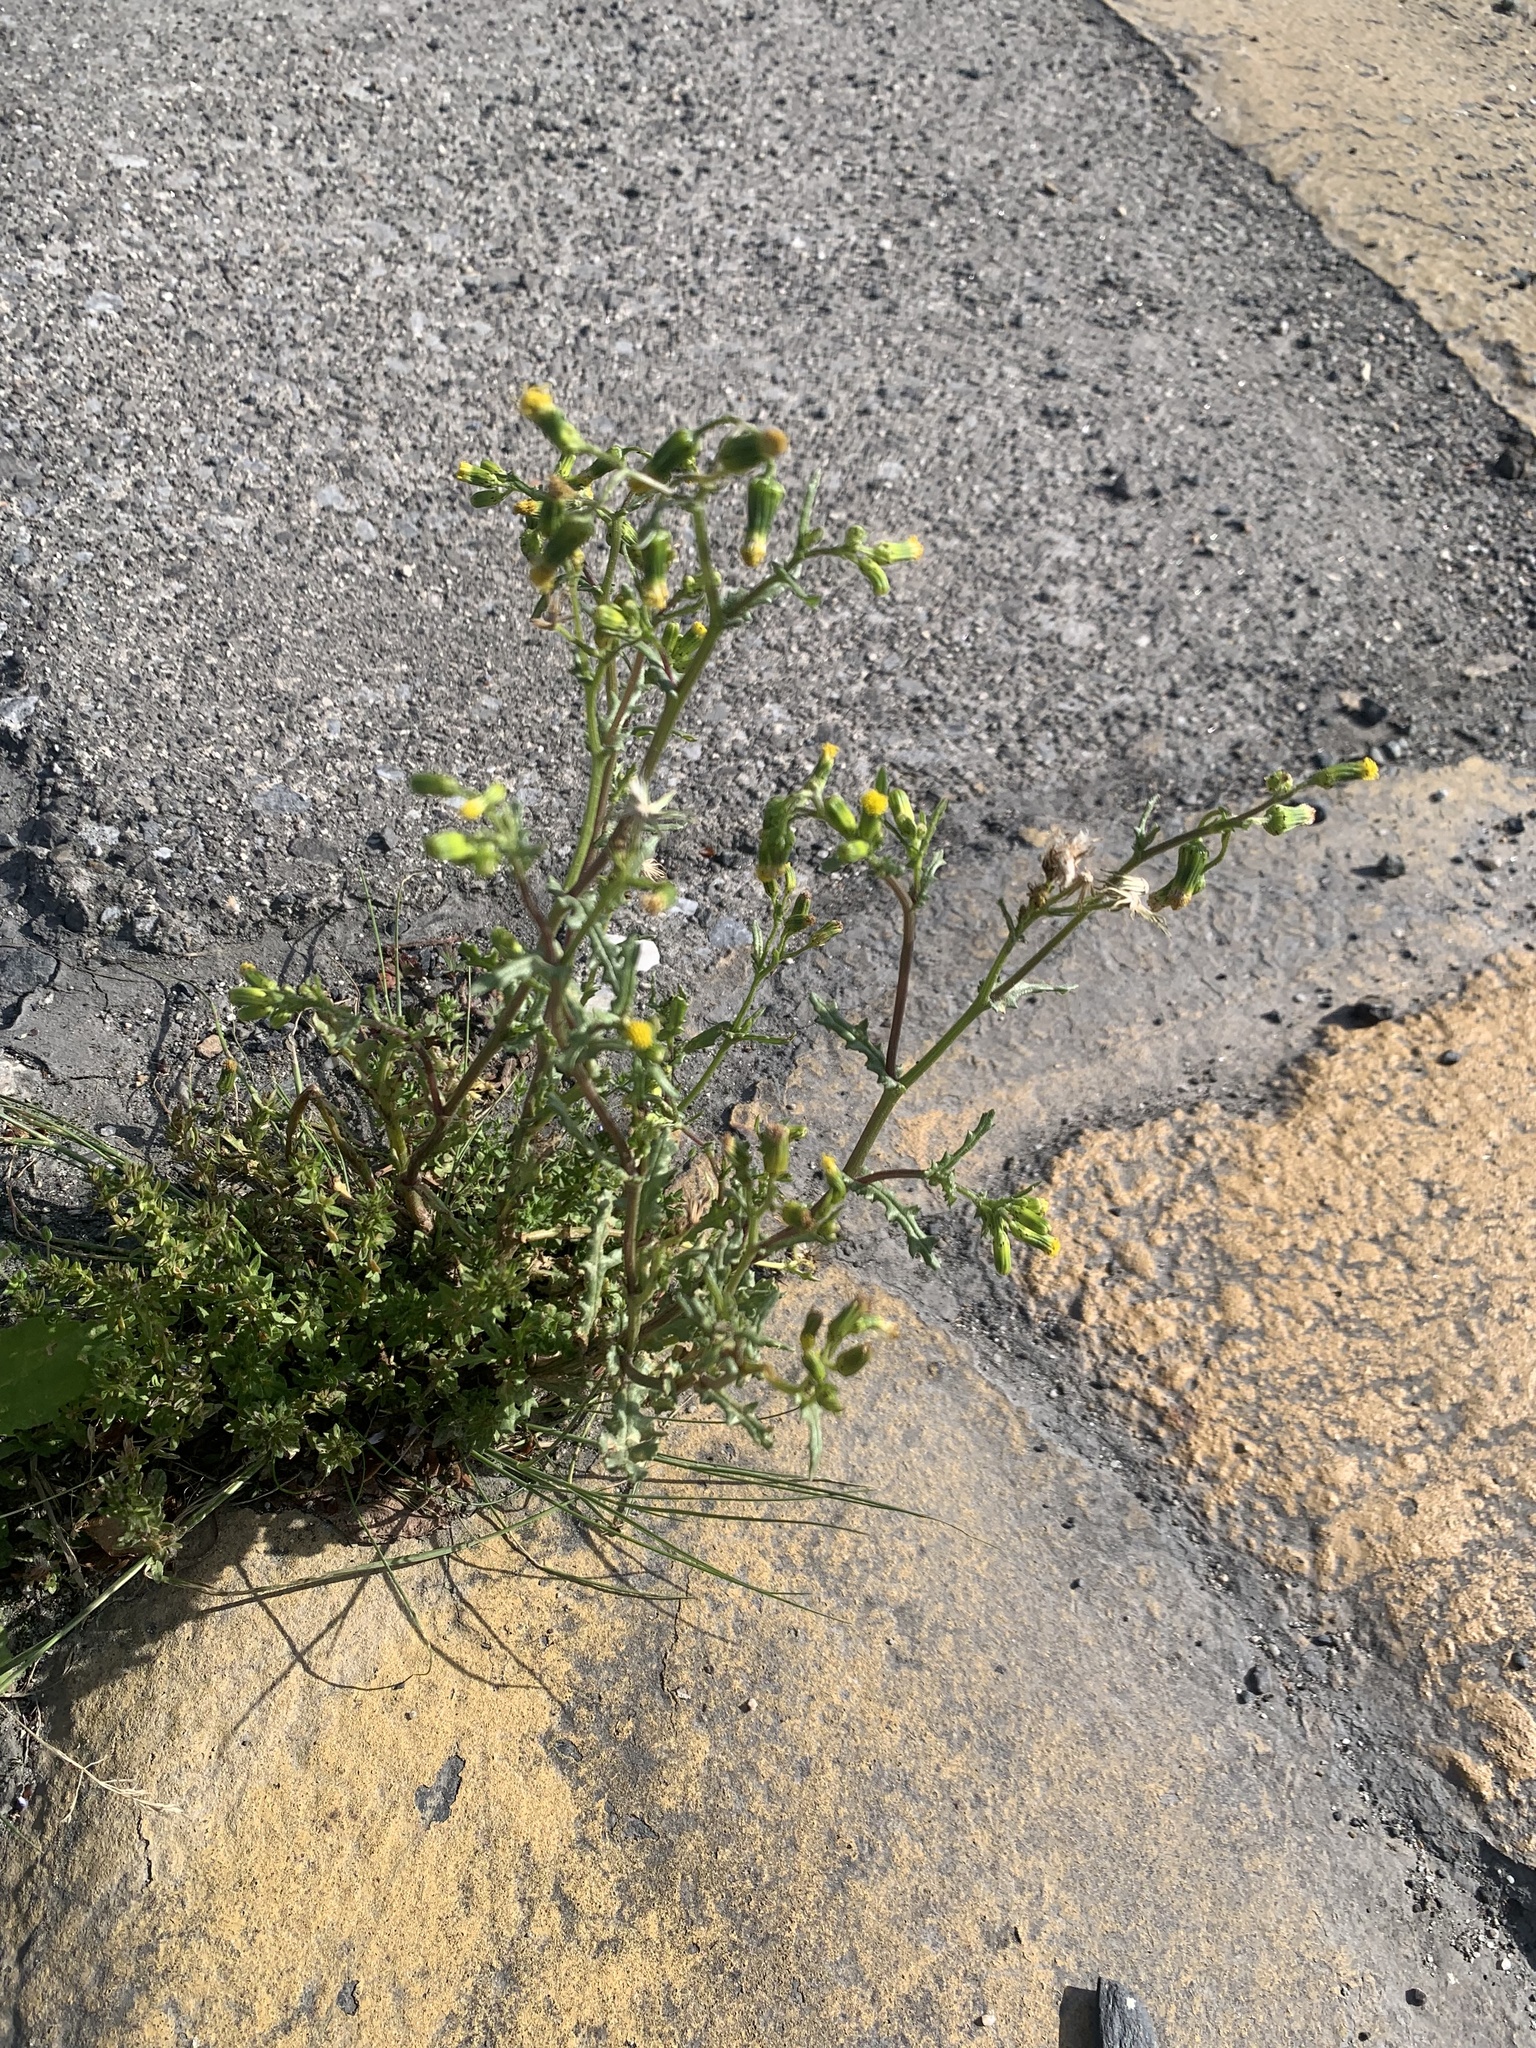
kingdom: Plantae
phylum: Tracheophyta
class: Magnoliopsida
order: Asterales
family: Asteraceae
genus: Senecio
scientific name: Senecio vulgaris
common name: Old-man-in-the-spring
